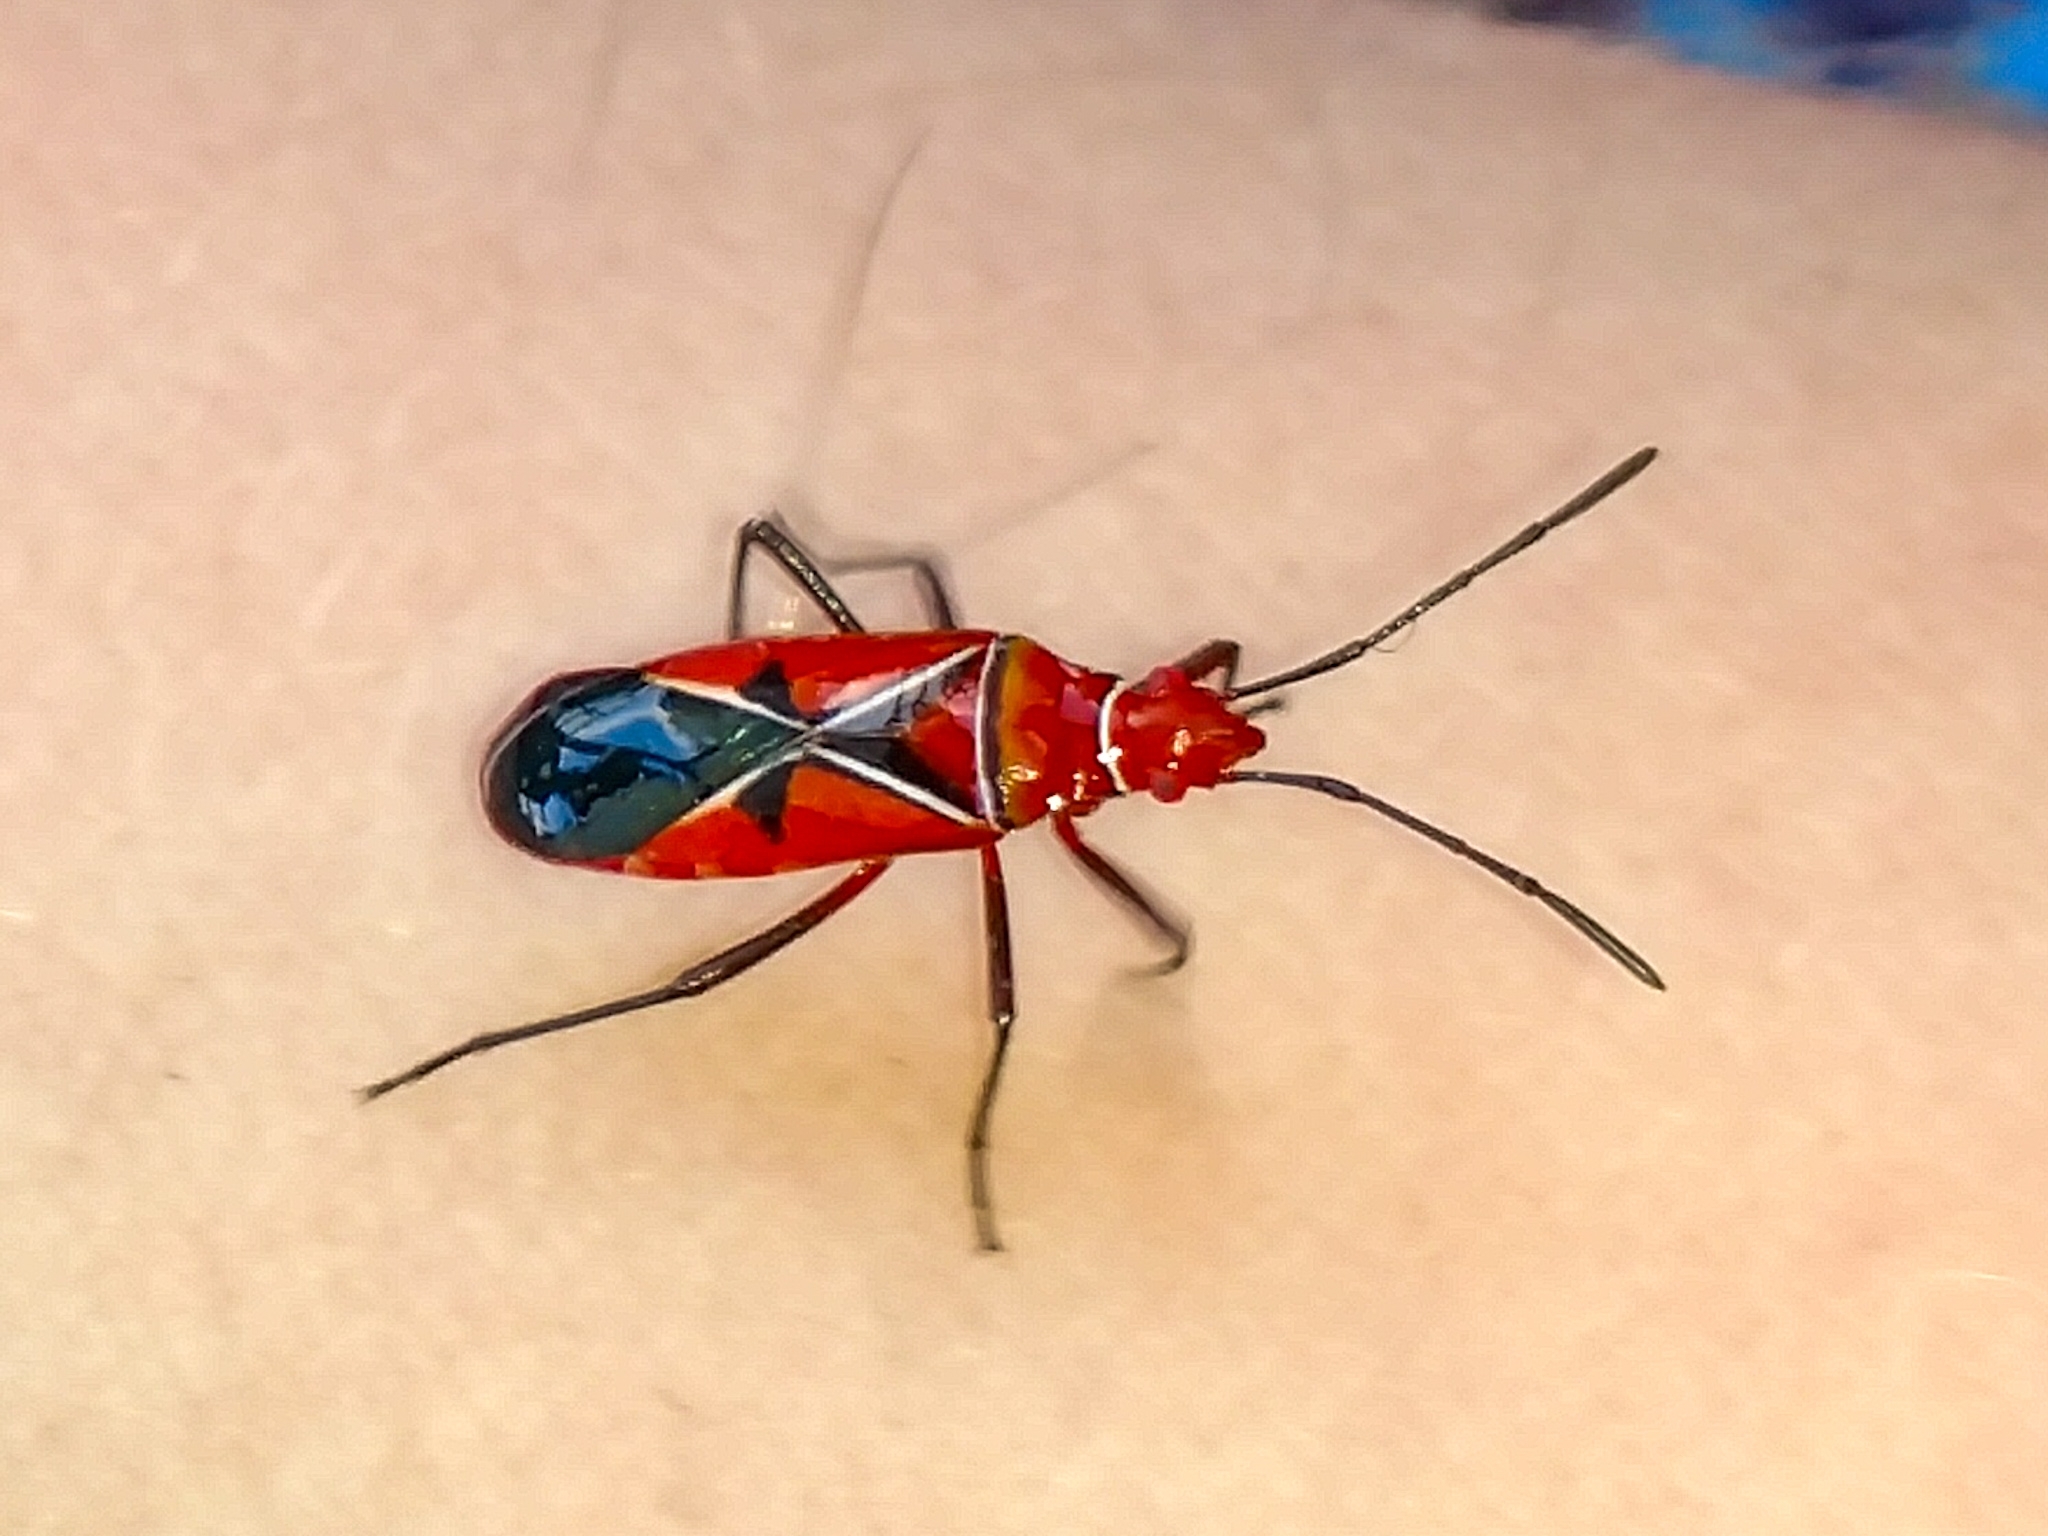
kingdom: Animalia
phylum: Arthropoda
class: Insecta
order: Hemiptera
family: Pyrrhocoridae
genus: Dysdercus
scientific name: Dysdercus andreae
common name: St. andrew's cotton stainer
